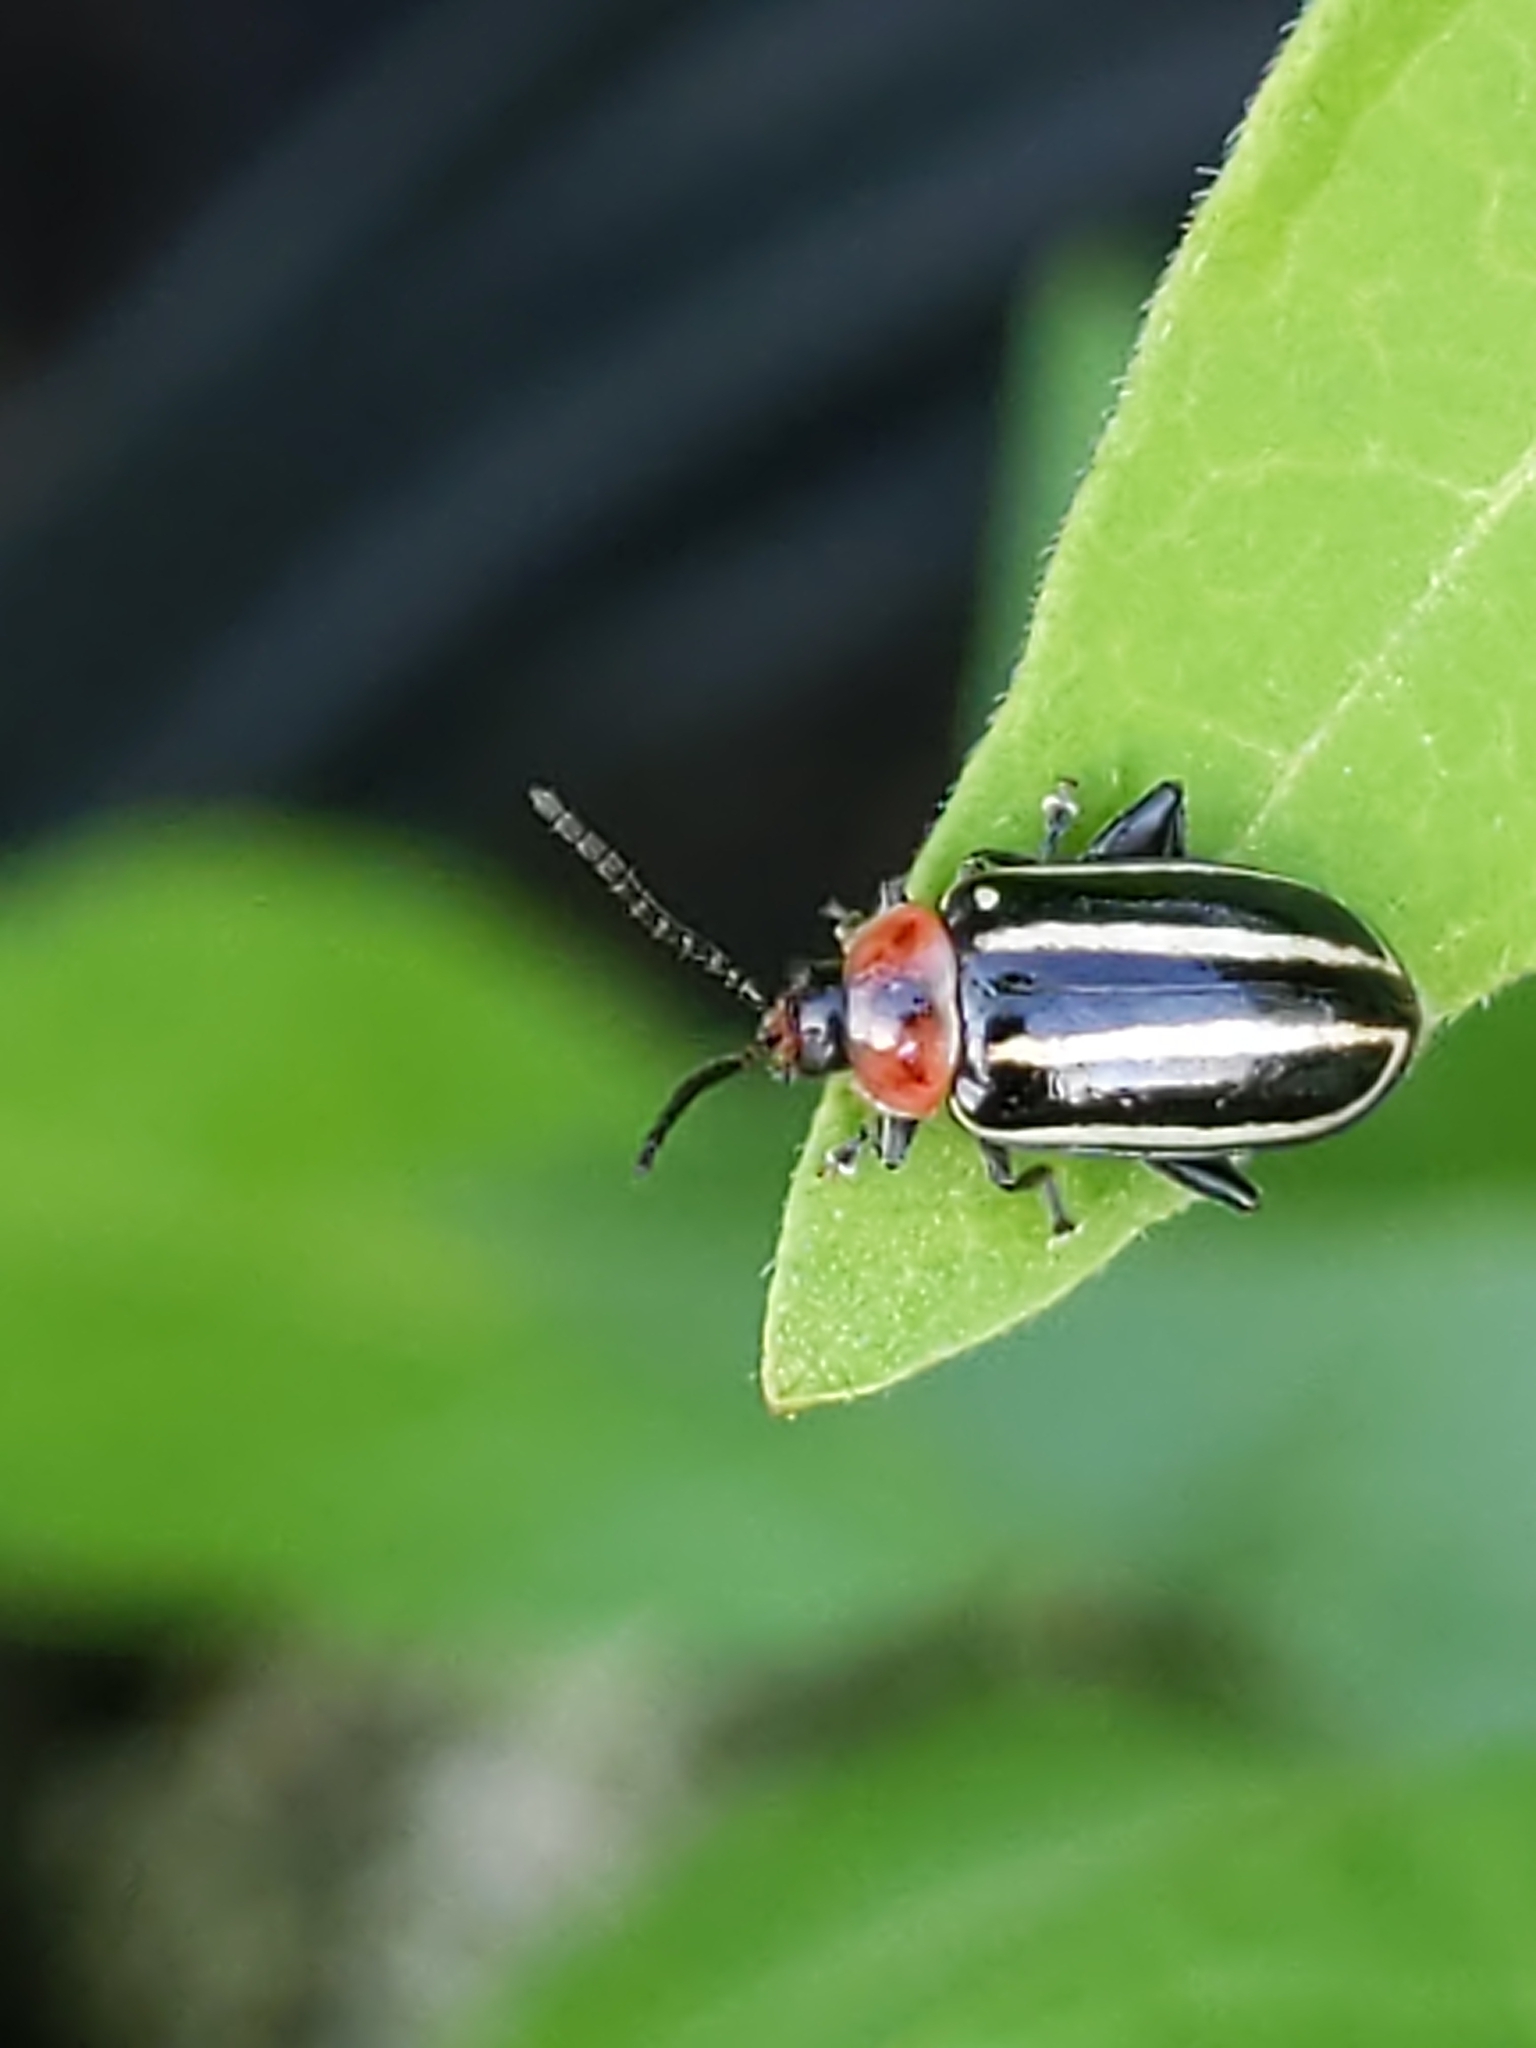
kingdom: Animalia
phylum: Arthropoda
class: Insecta
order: Coleoptera
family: Chrysomelidae
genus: Disonycha
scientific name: Disonycha glabrata
